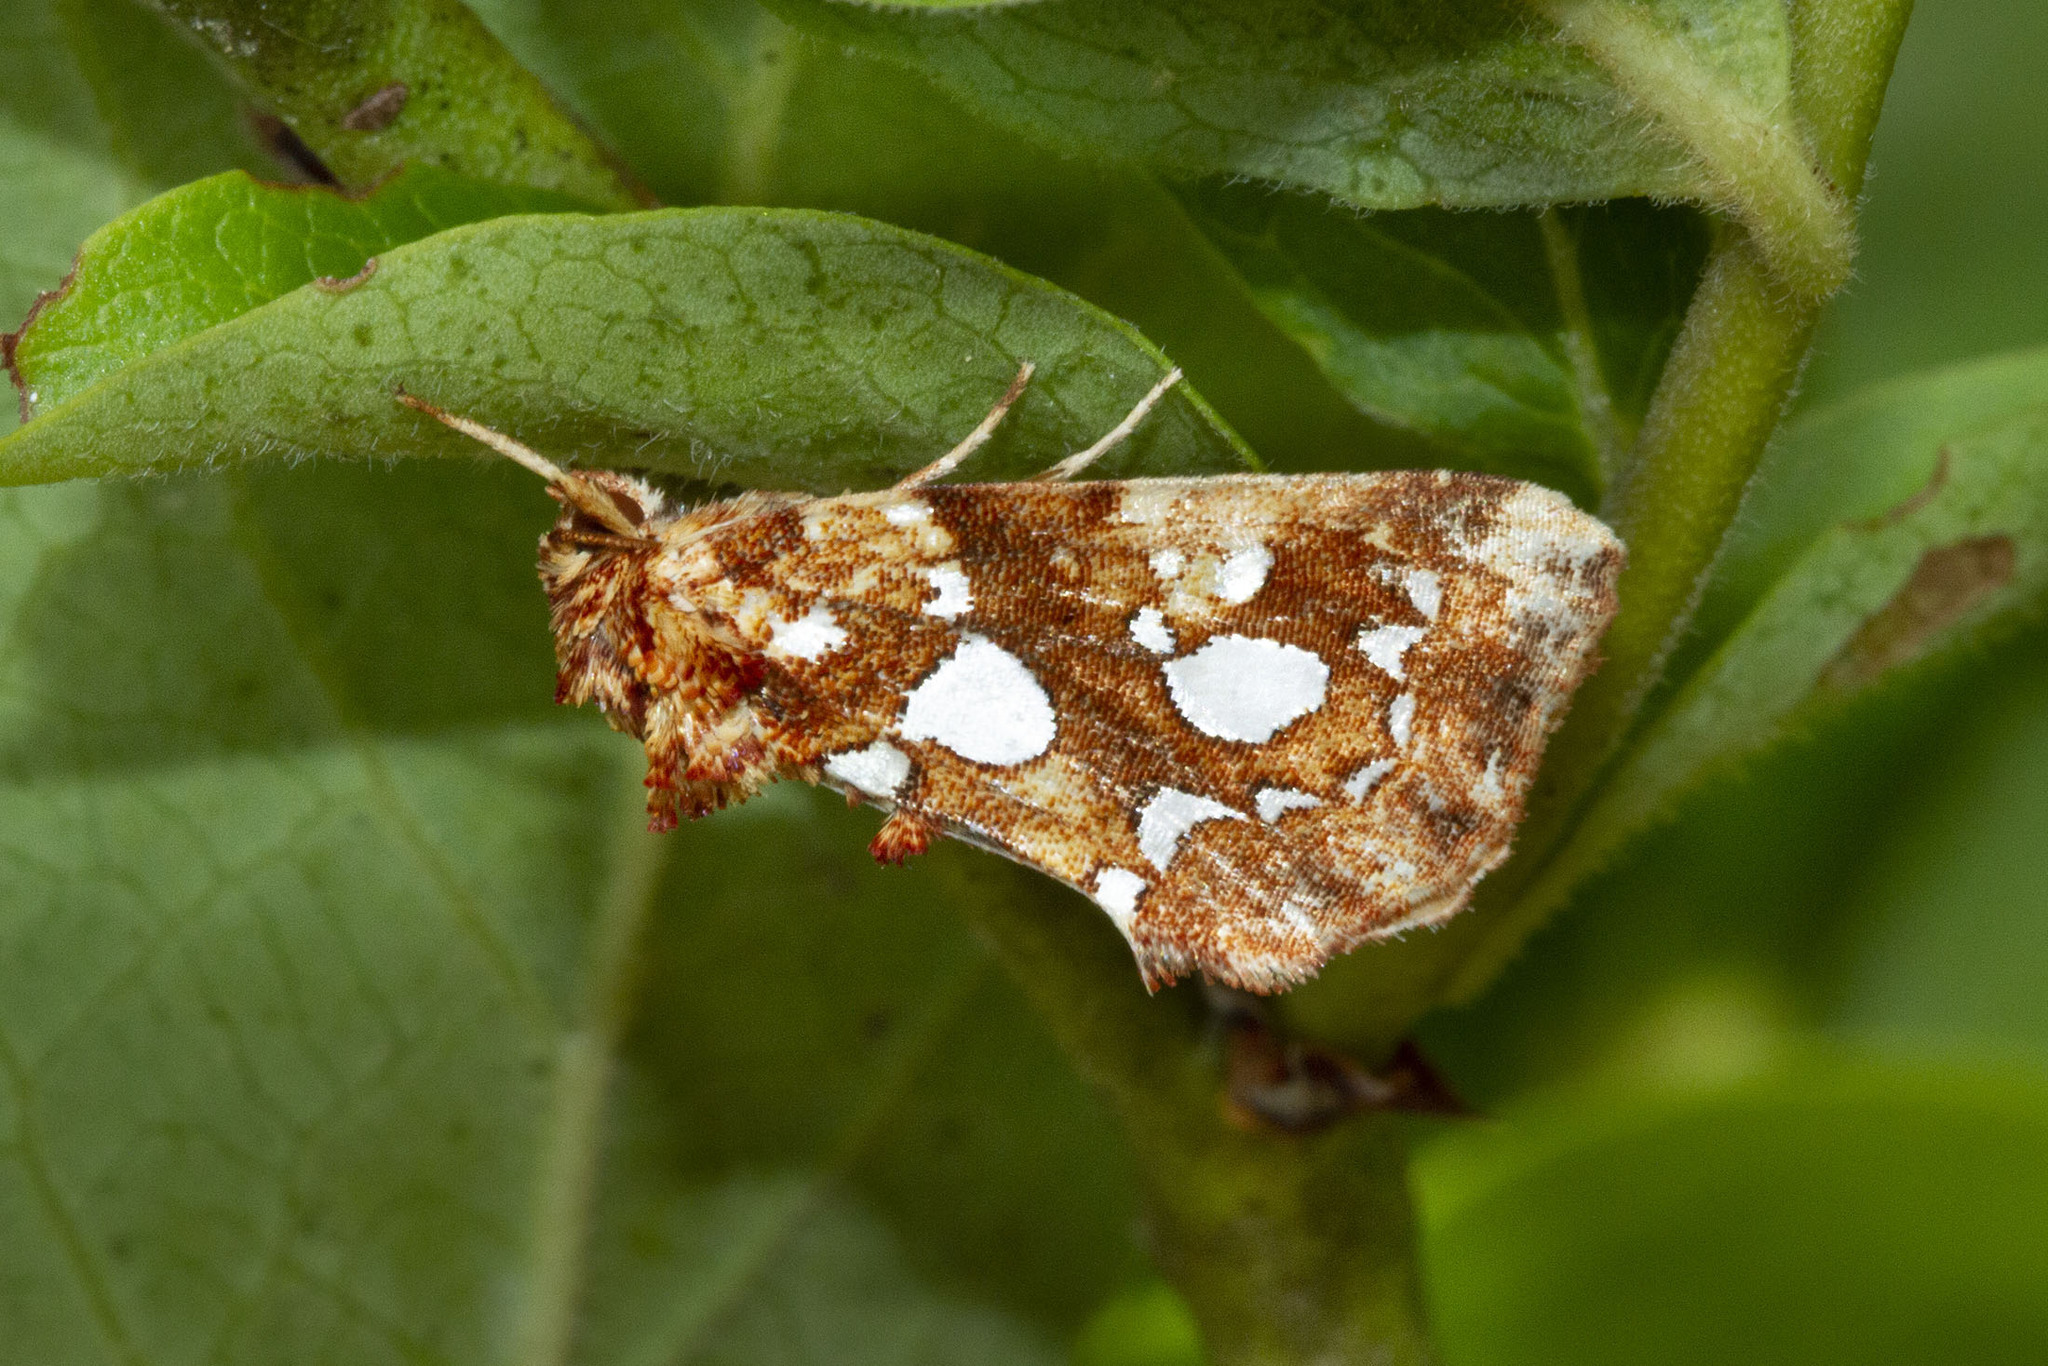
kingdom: Animalia
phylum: Arthropoda
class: Insecta
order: Lepidoptera
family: Noctuidae
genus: Callopistria
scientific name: Callopistria cordata
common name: Silver-spotted fern moth
